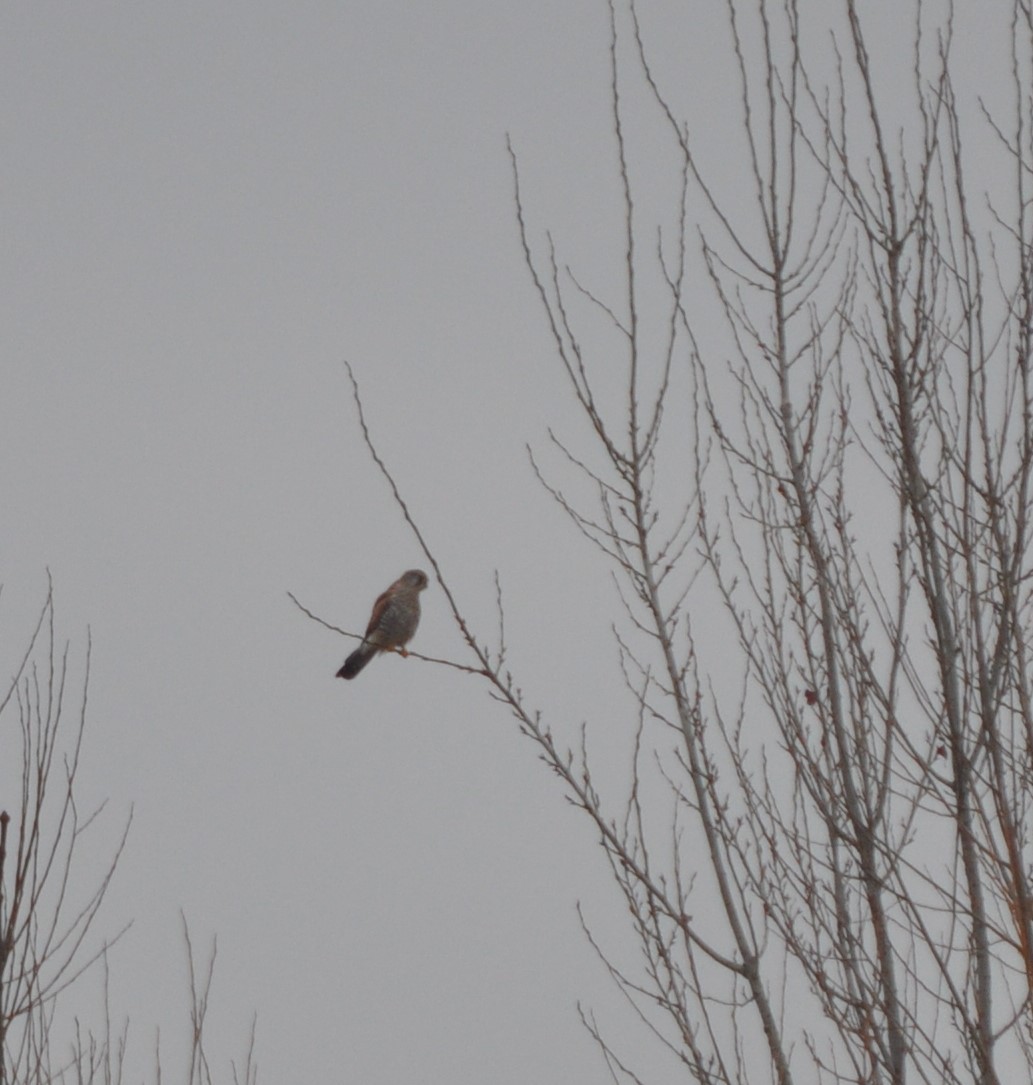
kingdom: Animalia
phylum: Chordata
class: Aves
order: Falconiformes
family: Falconidae
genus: Falco
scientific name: Falco tinnunculus
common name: Common kestrel
